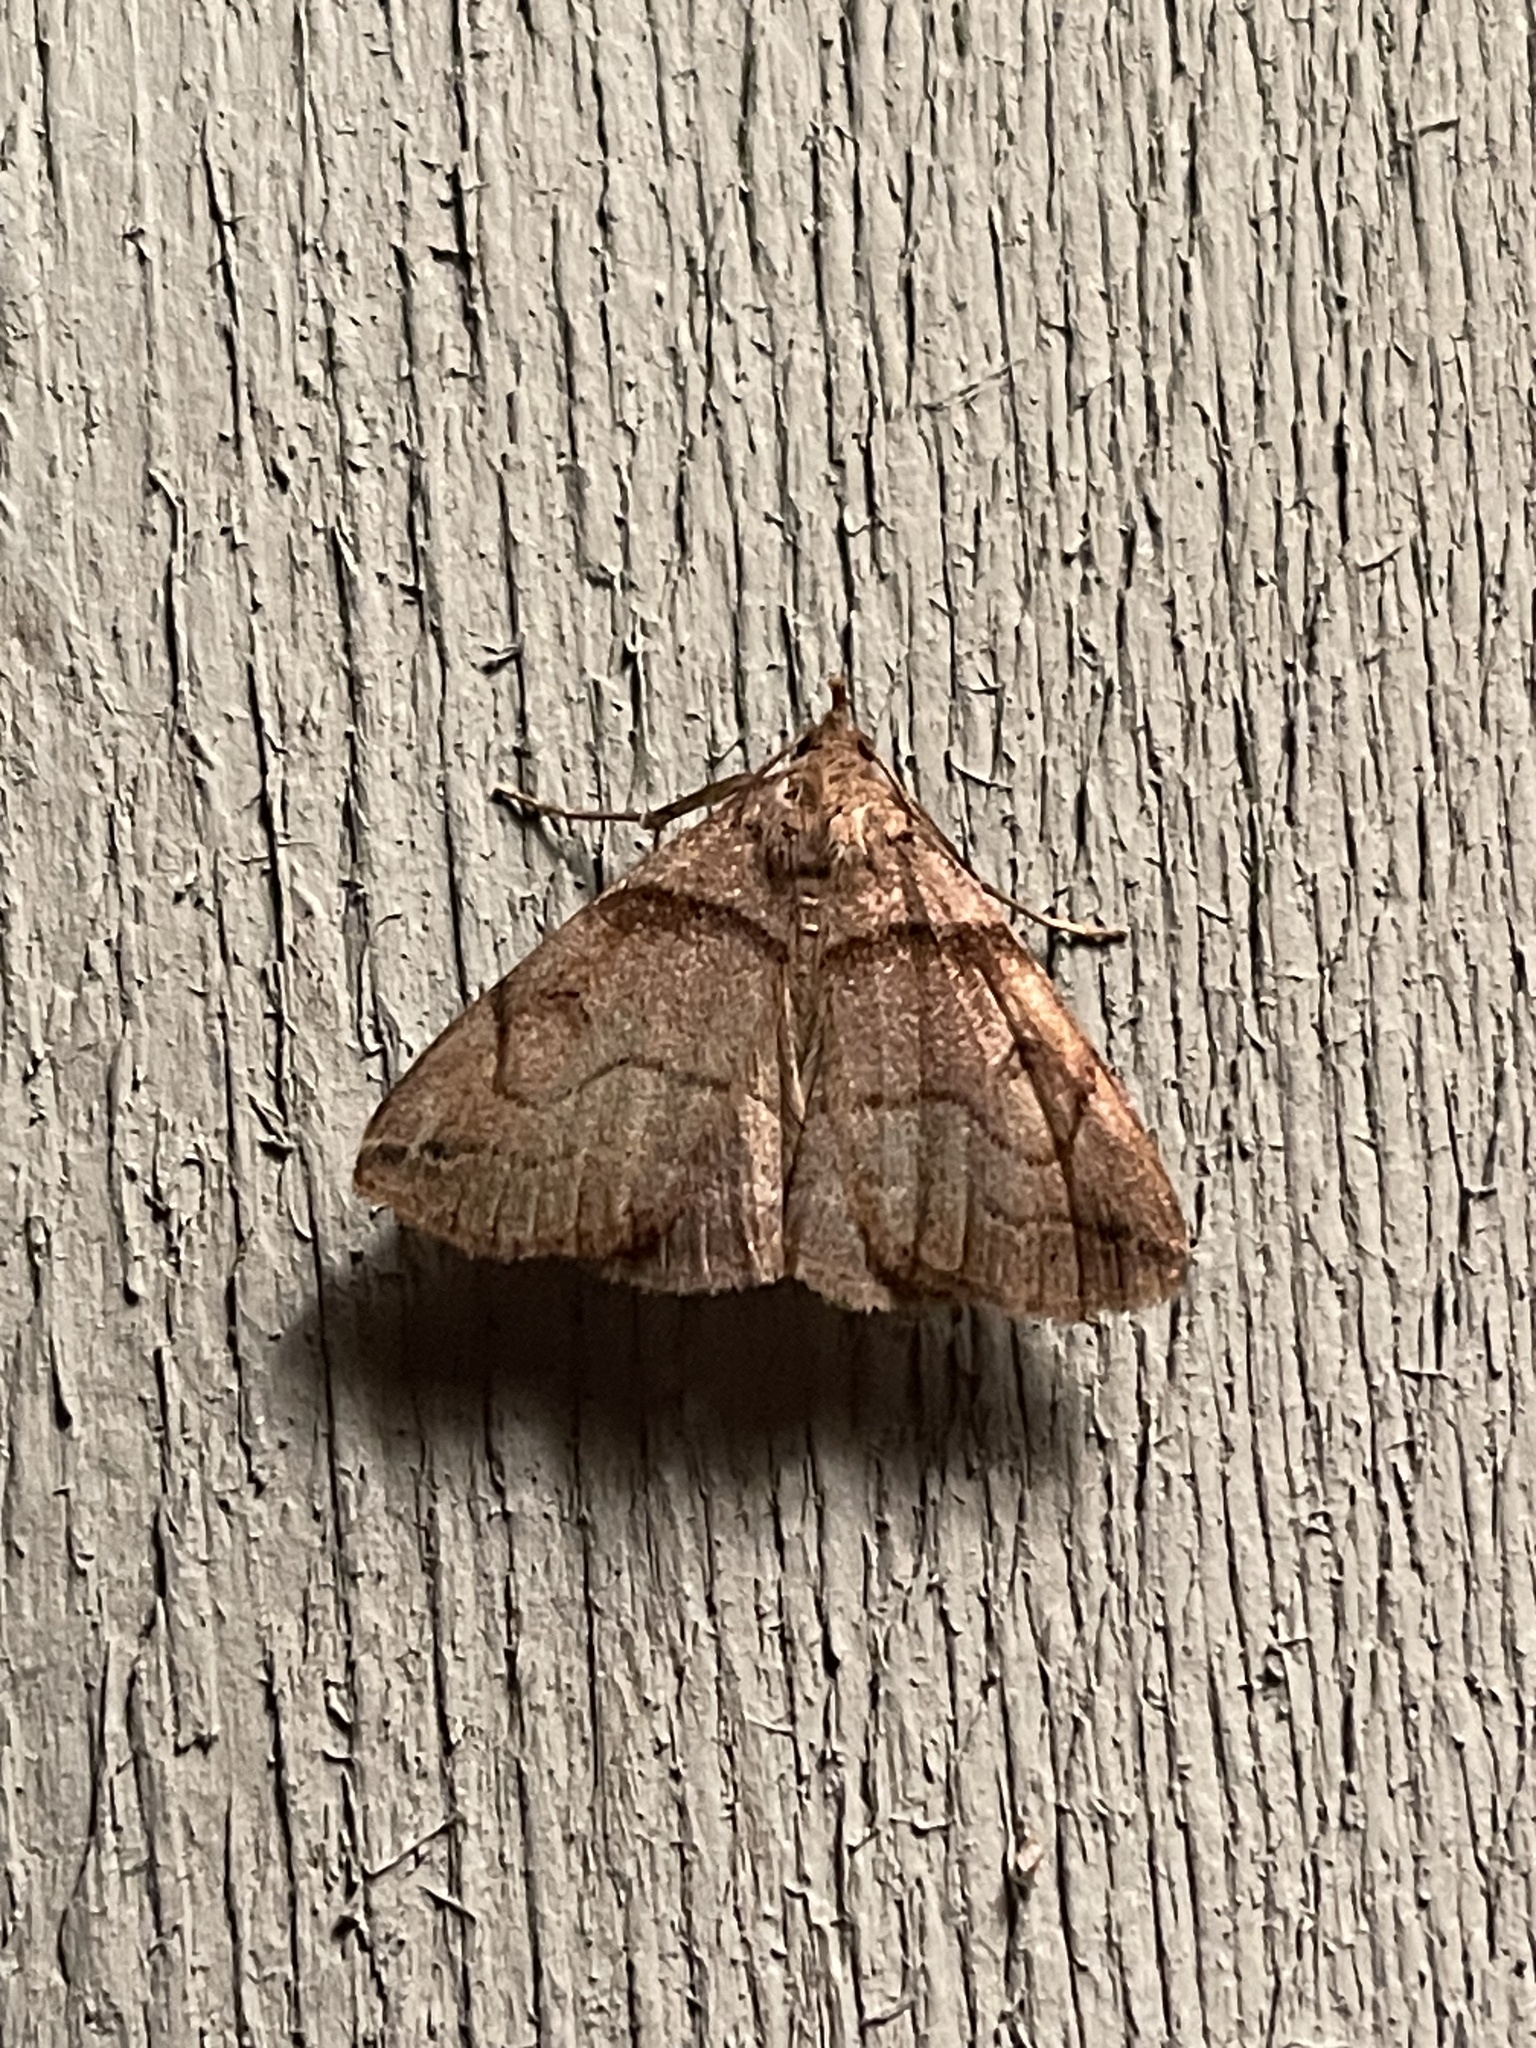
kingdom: Animalia
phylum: Arthropoda
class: Insecta
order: Lepidoptera
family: Erebidae
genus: Zanclognatha
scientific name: Zanclognatha laevigata
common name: Variable fan-foot
